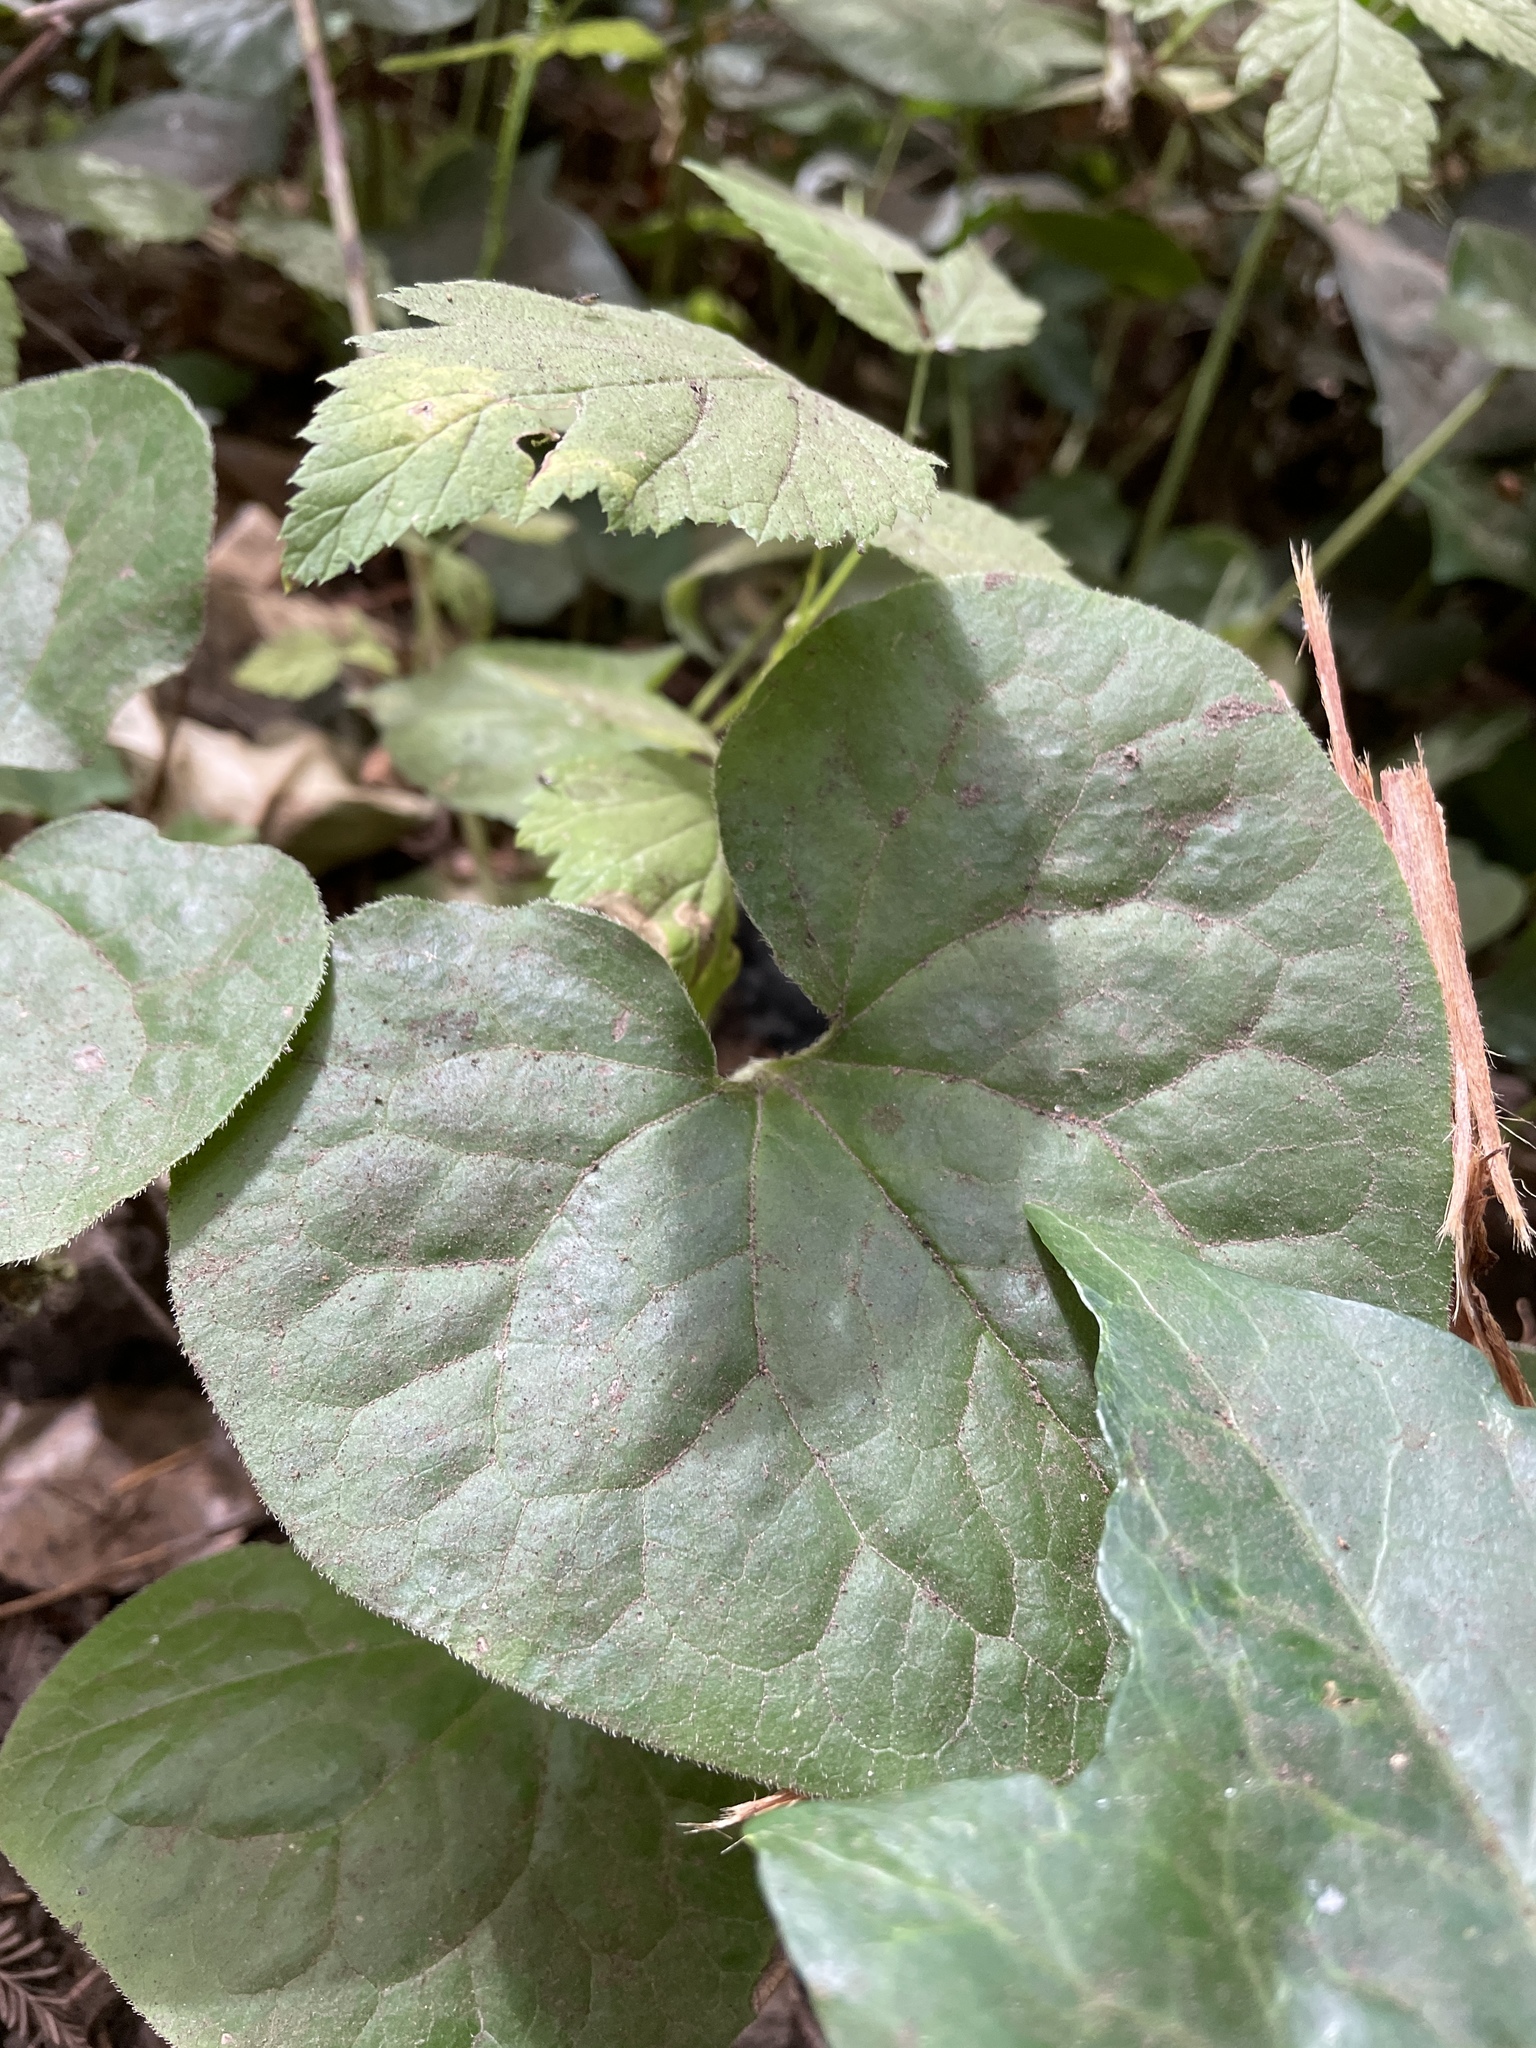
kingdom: Plantae
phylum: Tracheophyta
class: Magnoliopsida
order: Piperales
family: Aristolochiaceae
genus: Asarum
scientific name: Asarum caudatum
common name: Wild ginger
